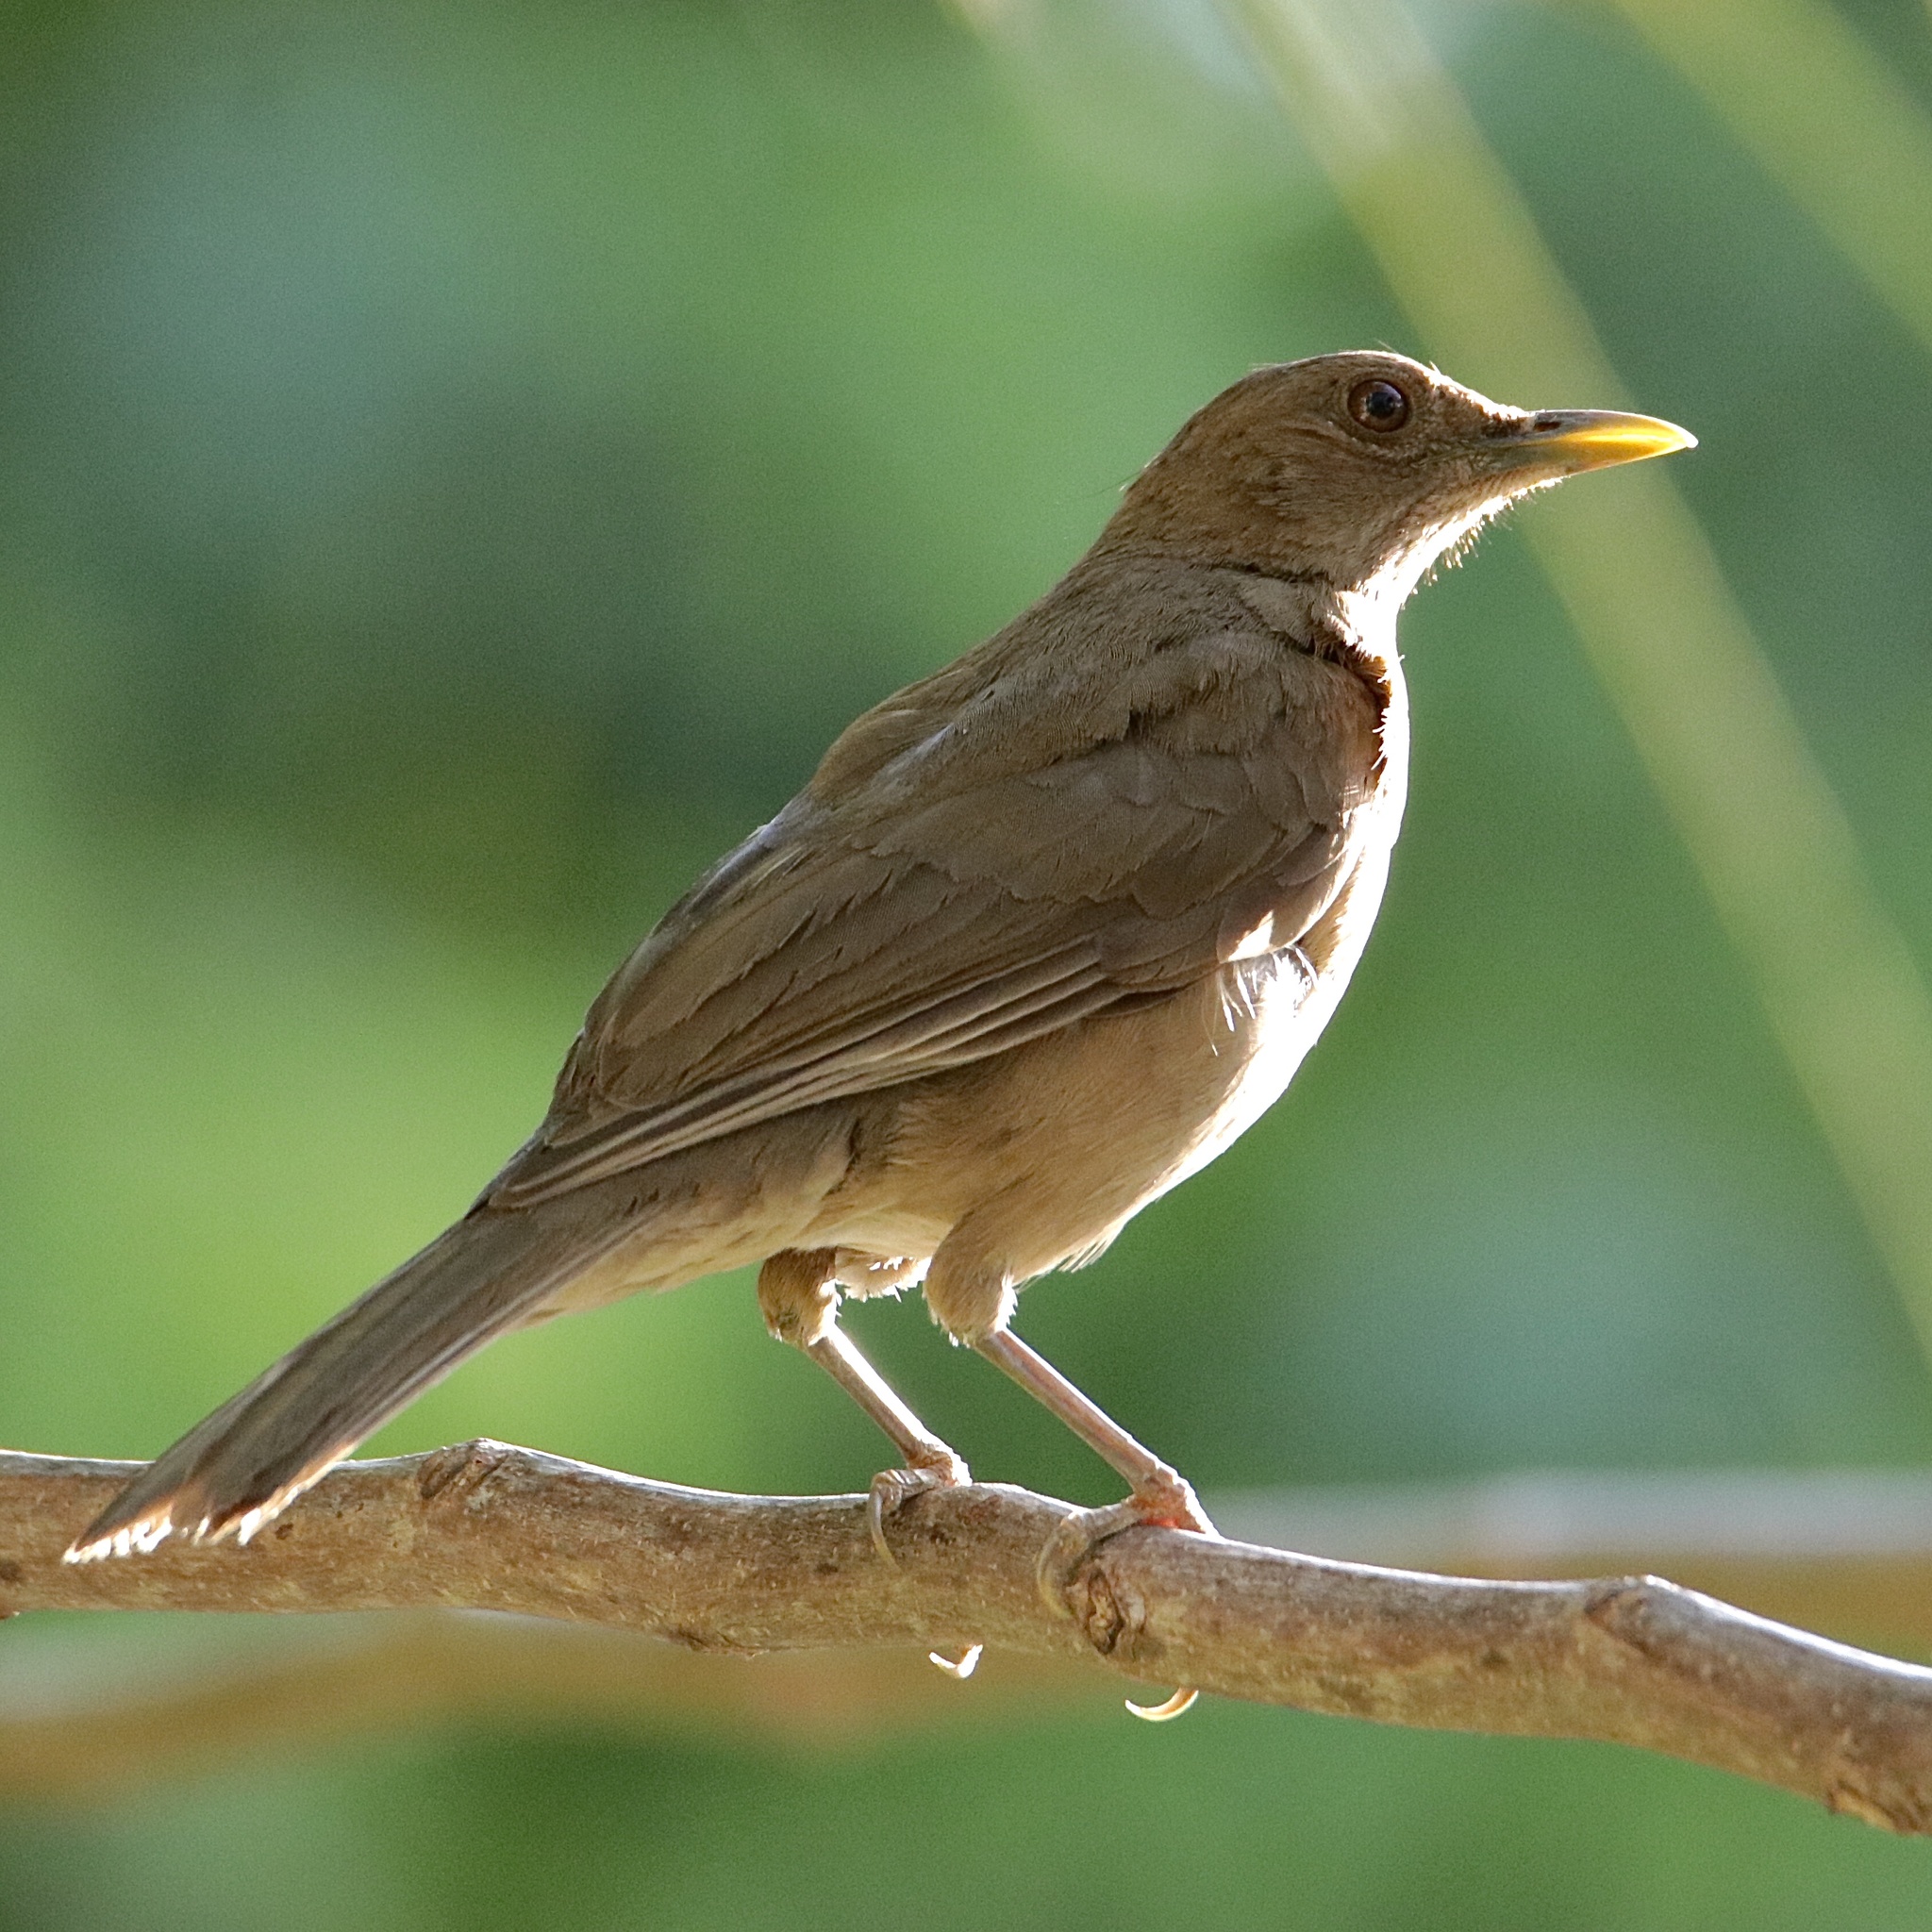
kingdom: Animalia
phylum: Chordata
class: Aves
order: Passeriformes
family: Turdidae
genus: Turdus
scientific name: Turdus grayi
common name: Clay-colored thrush
